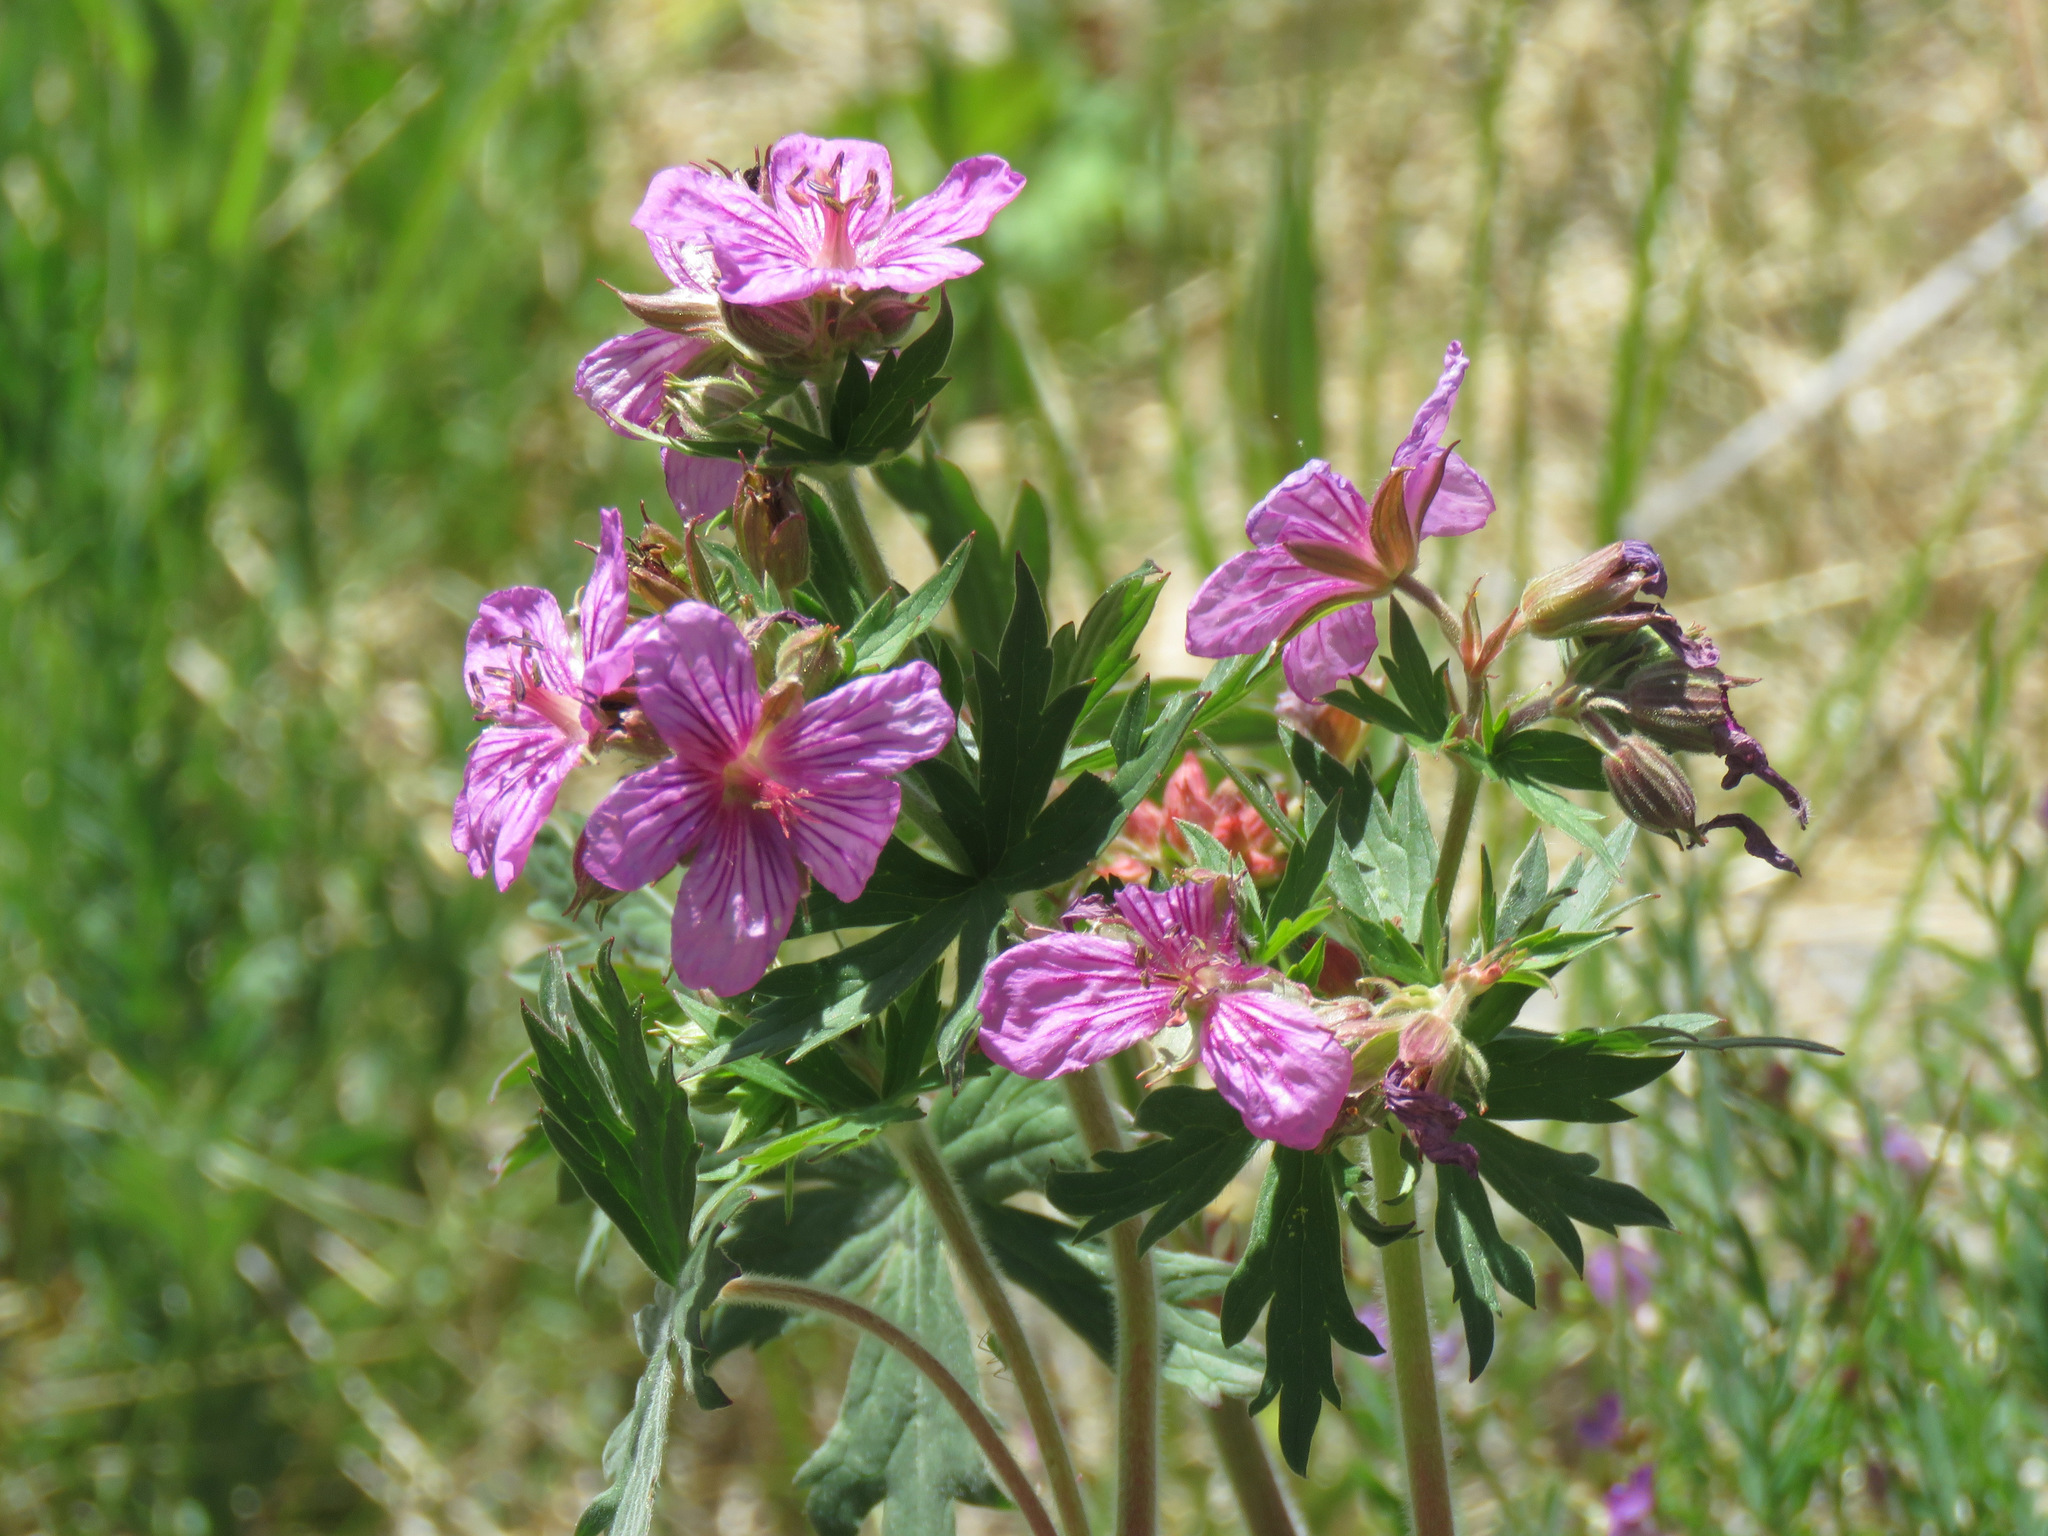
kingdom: Plantae
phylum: Tracheophyta
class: Magnoliopsida
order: Geraniales
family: Geraniaceae
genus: Geranium
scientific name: Geranium viscosissimum
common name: Purple geranium
